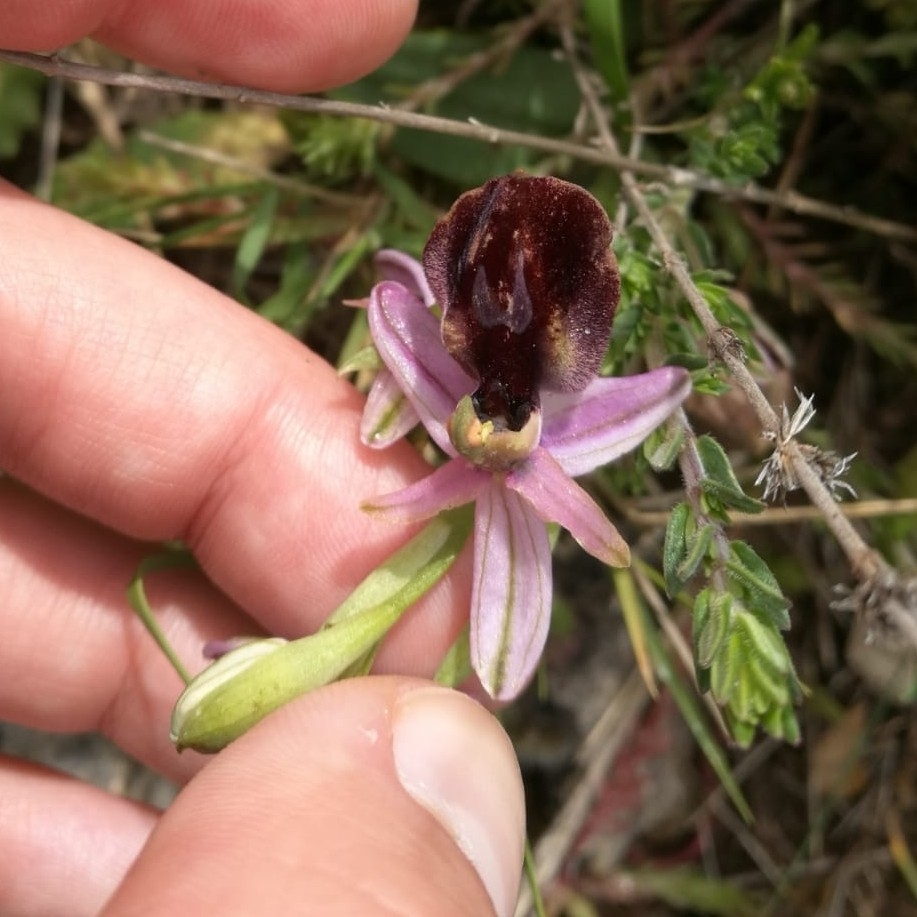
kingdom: Plantae
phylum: Tracheophyta
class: Liliopsida
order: Asparagales
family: Orchidaceae
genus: Ophrys
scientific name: Ophrys ferrum-equinum
